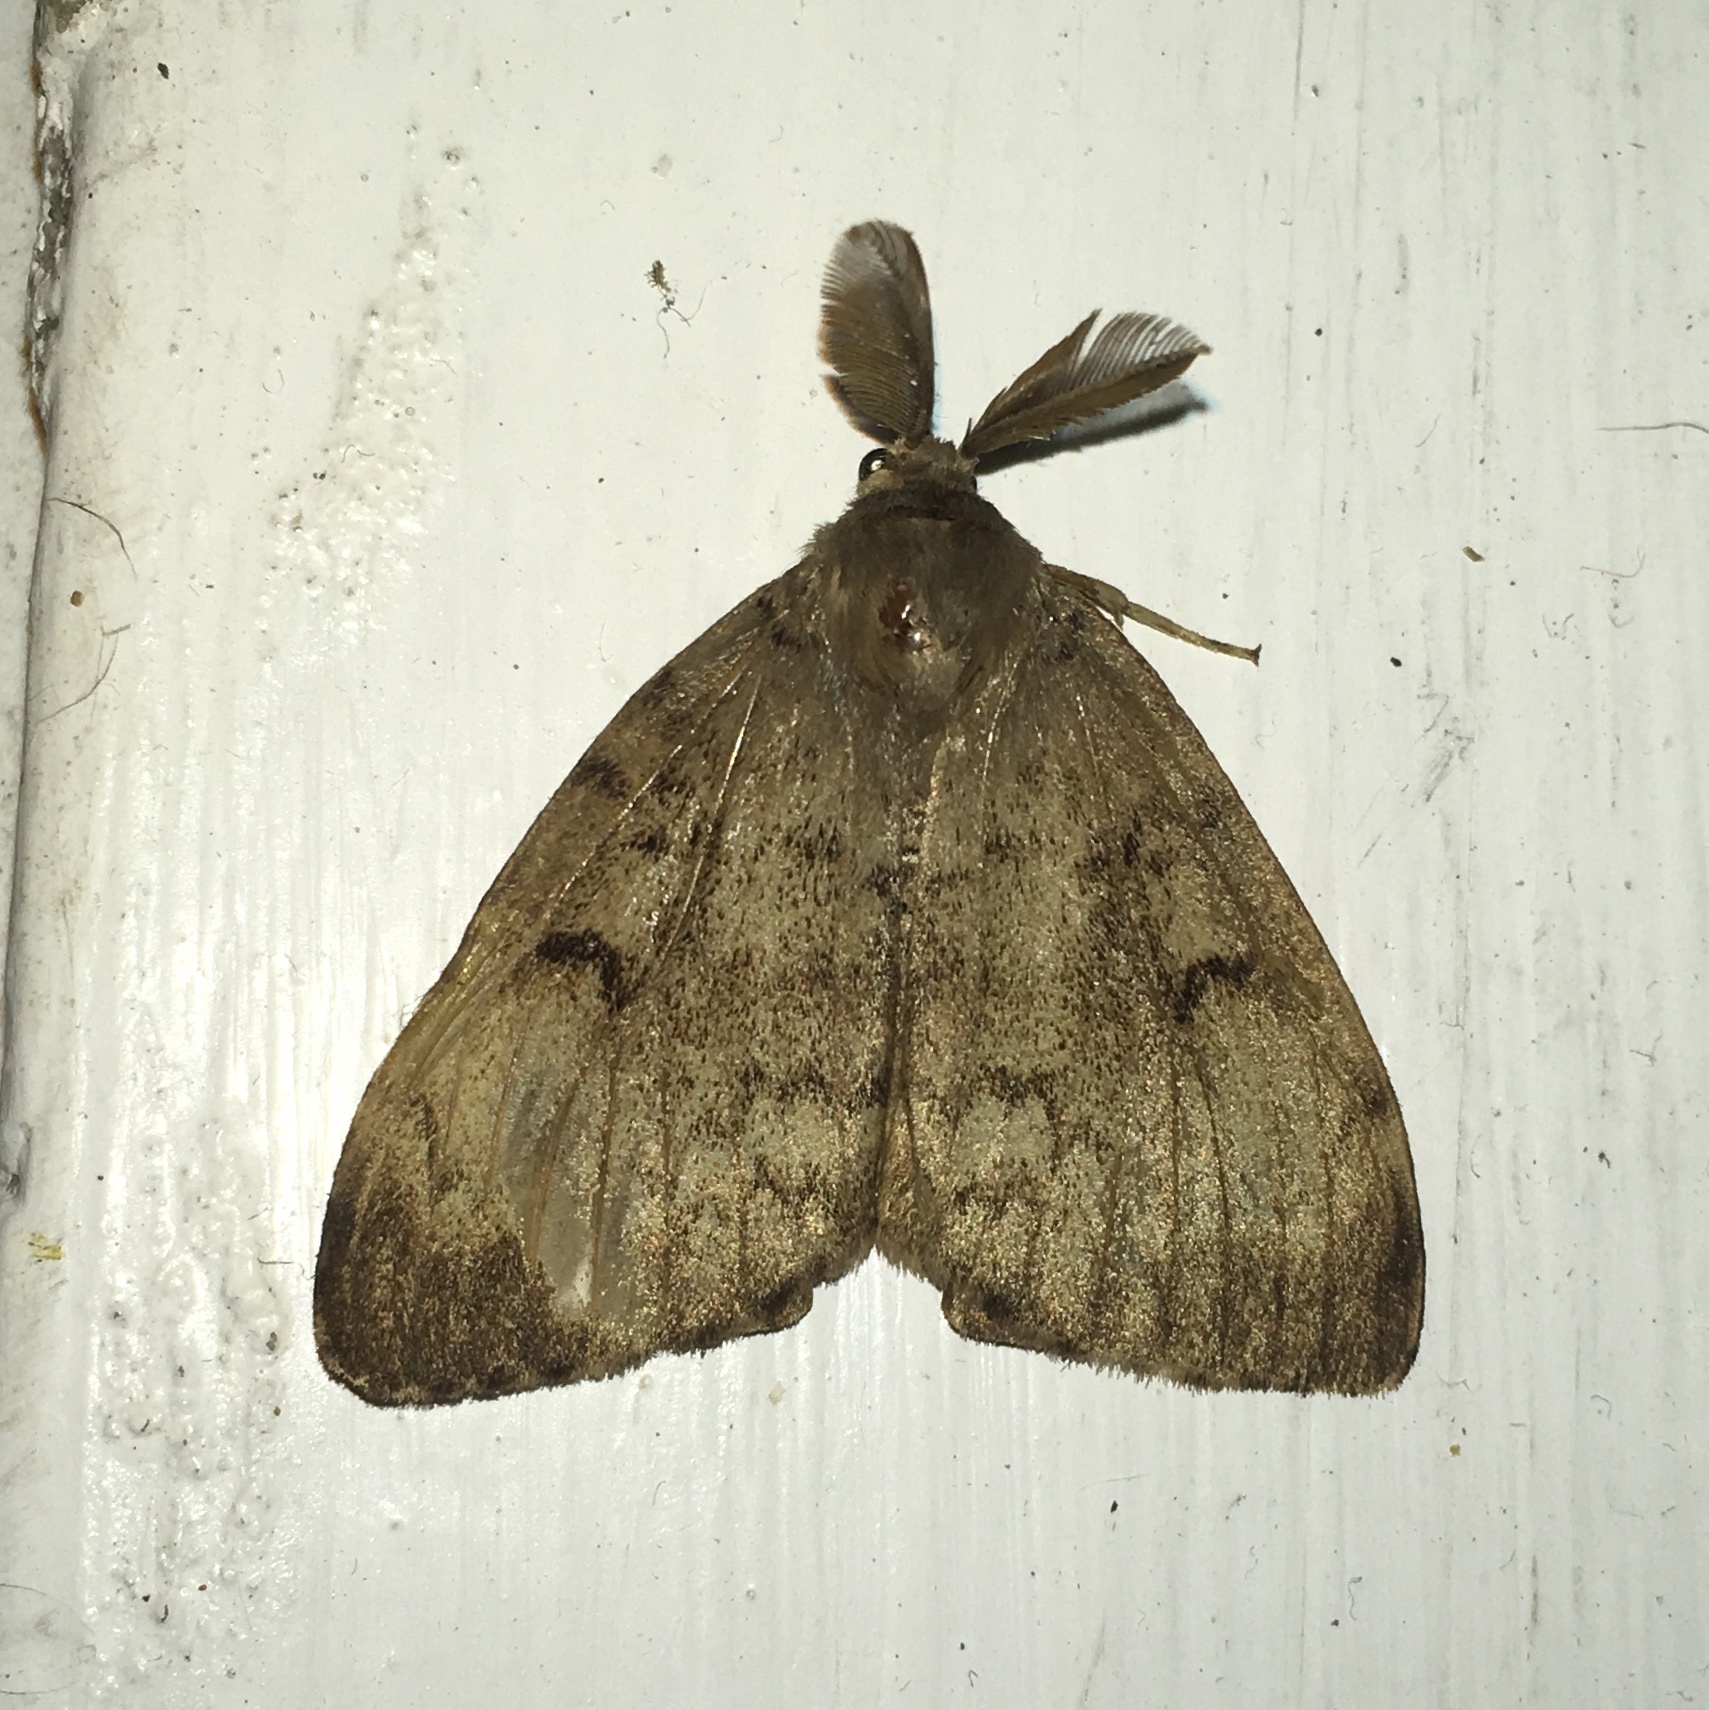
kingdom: Animalia
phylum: Arthropoda
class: Insecta
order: Lepidoptera
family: Erebidae
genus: Lymantria
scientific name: Lymantria dispar
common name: Gypsy moth
